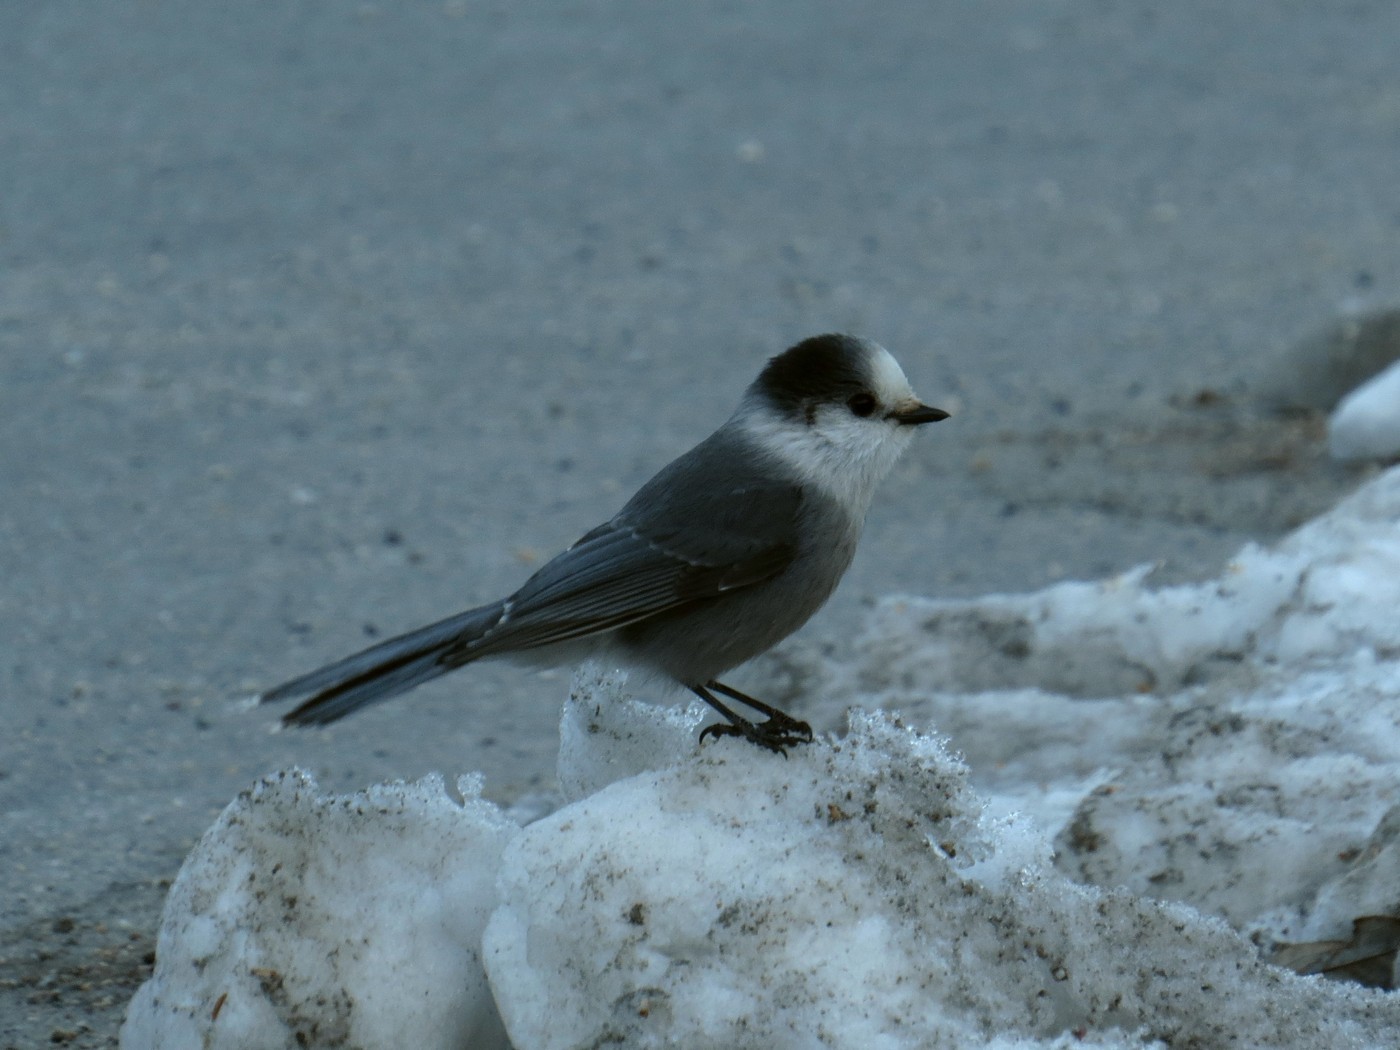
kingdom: Animalia
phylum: Chordata
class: Aves
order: Passeriformes
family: Corvidae
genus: Perisoreus
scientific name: Perisoreus canadensis
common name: Gray jay
